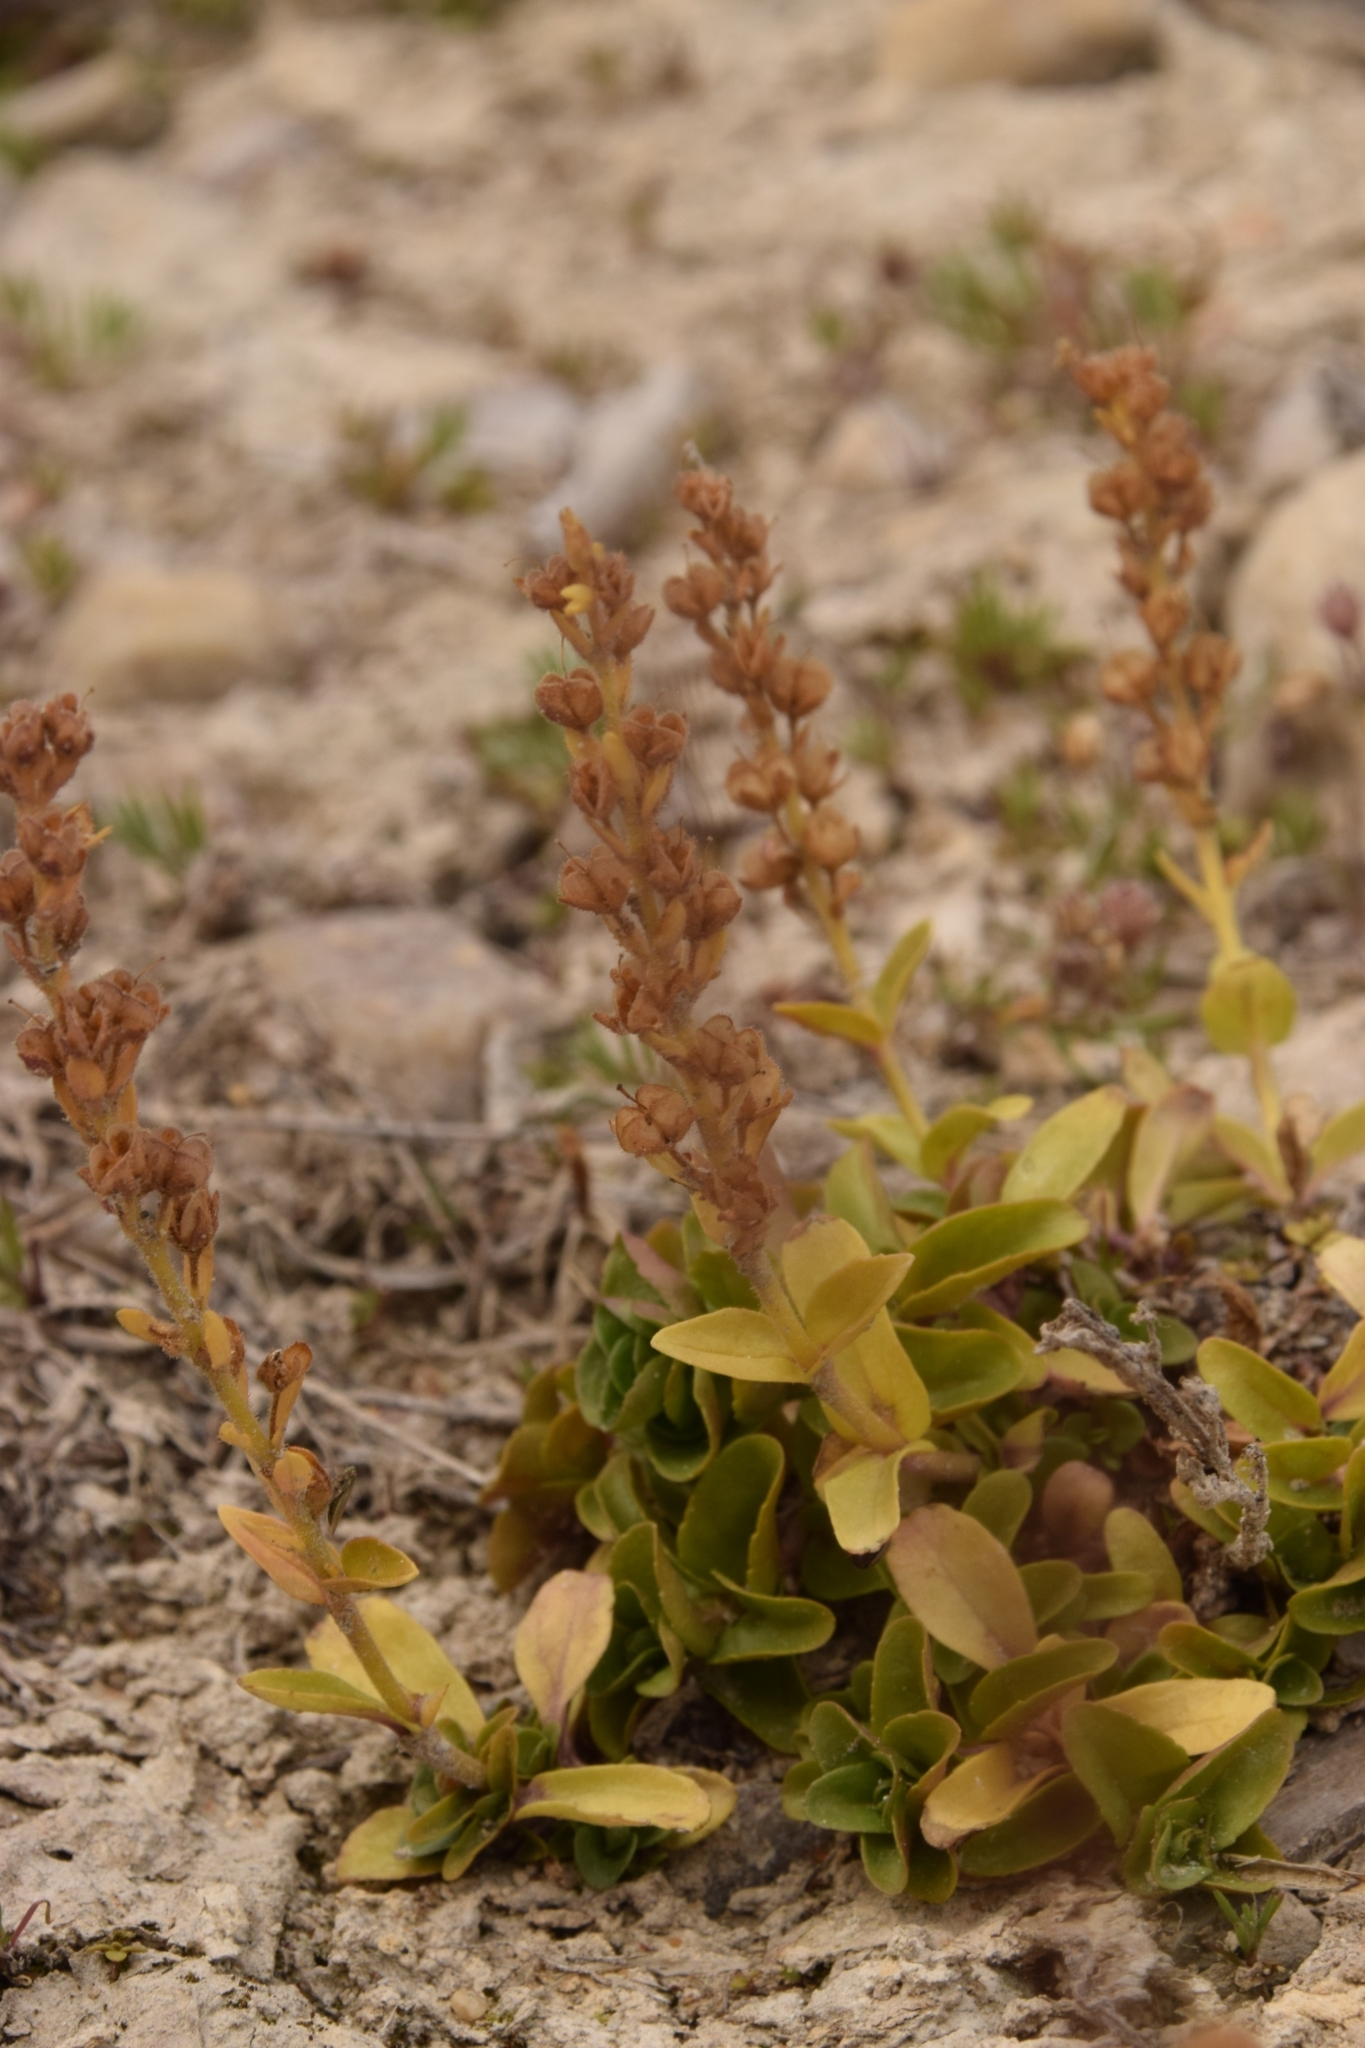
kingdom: Plantae
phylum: Tracheophyta
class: Magnoliopsida
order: Lamiales
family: Plantaginaceae
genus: Veronica
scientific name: Veronica officinalis
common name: Common speedwell
